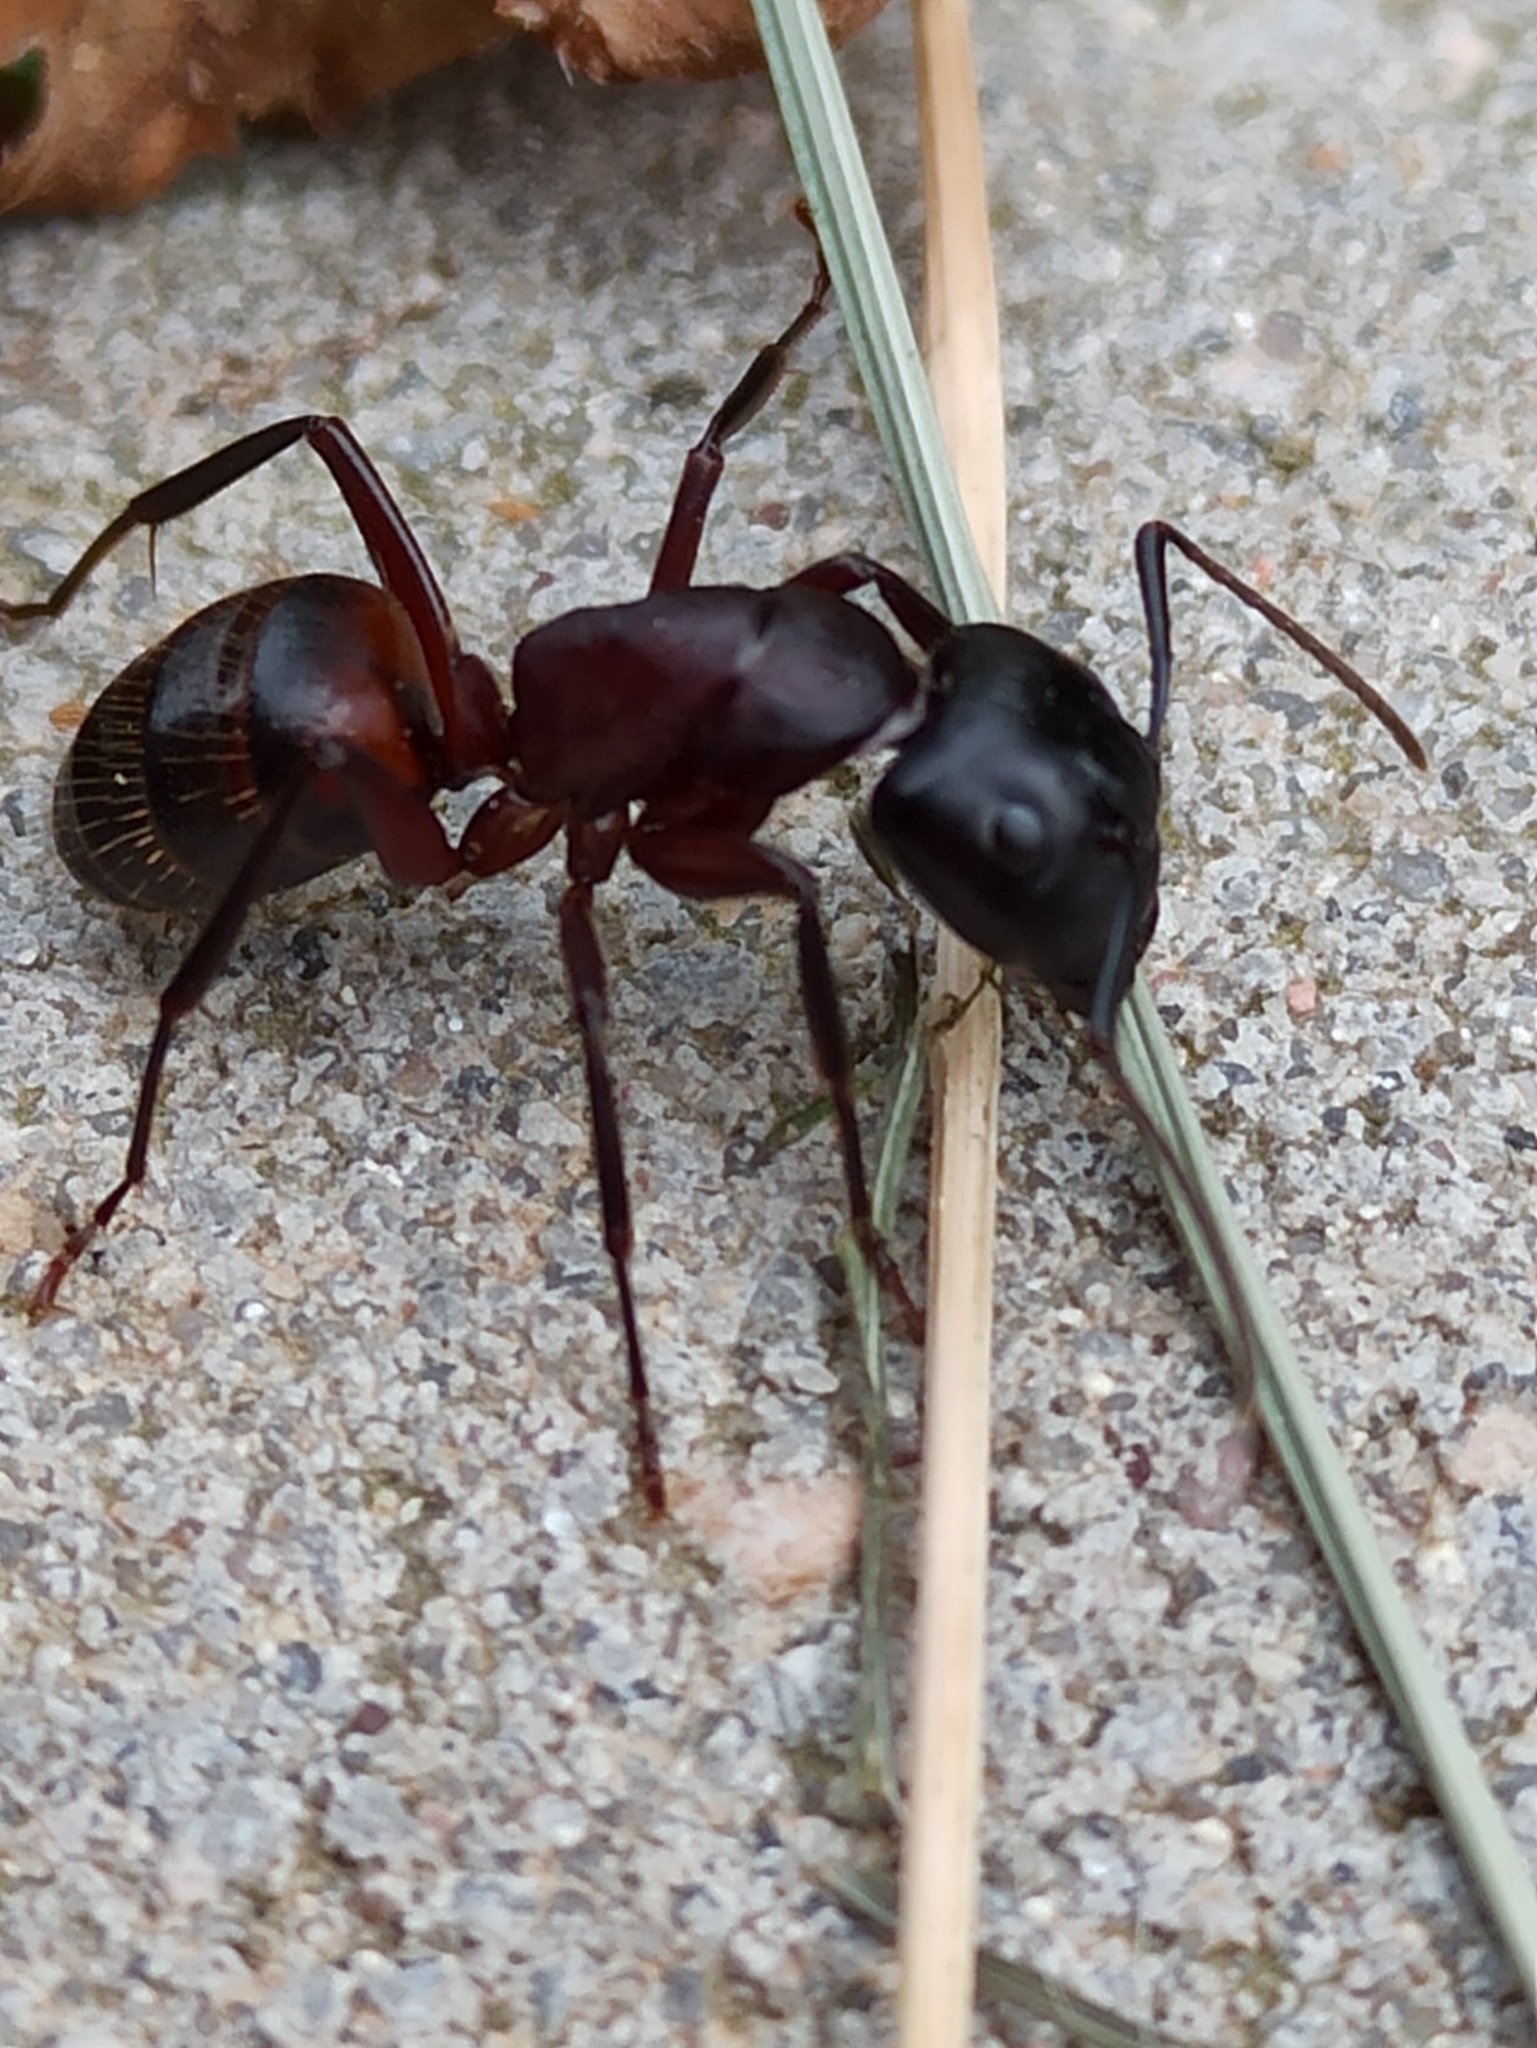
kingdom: Animalia
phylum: Arthropoda
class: Insecta
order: Hymenoptera
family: Formicidae
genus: Camponotus
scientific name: Camponotus ligniperdus
